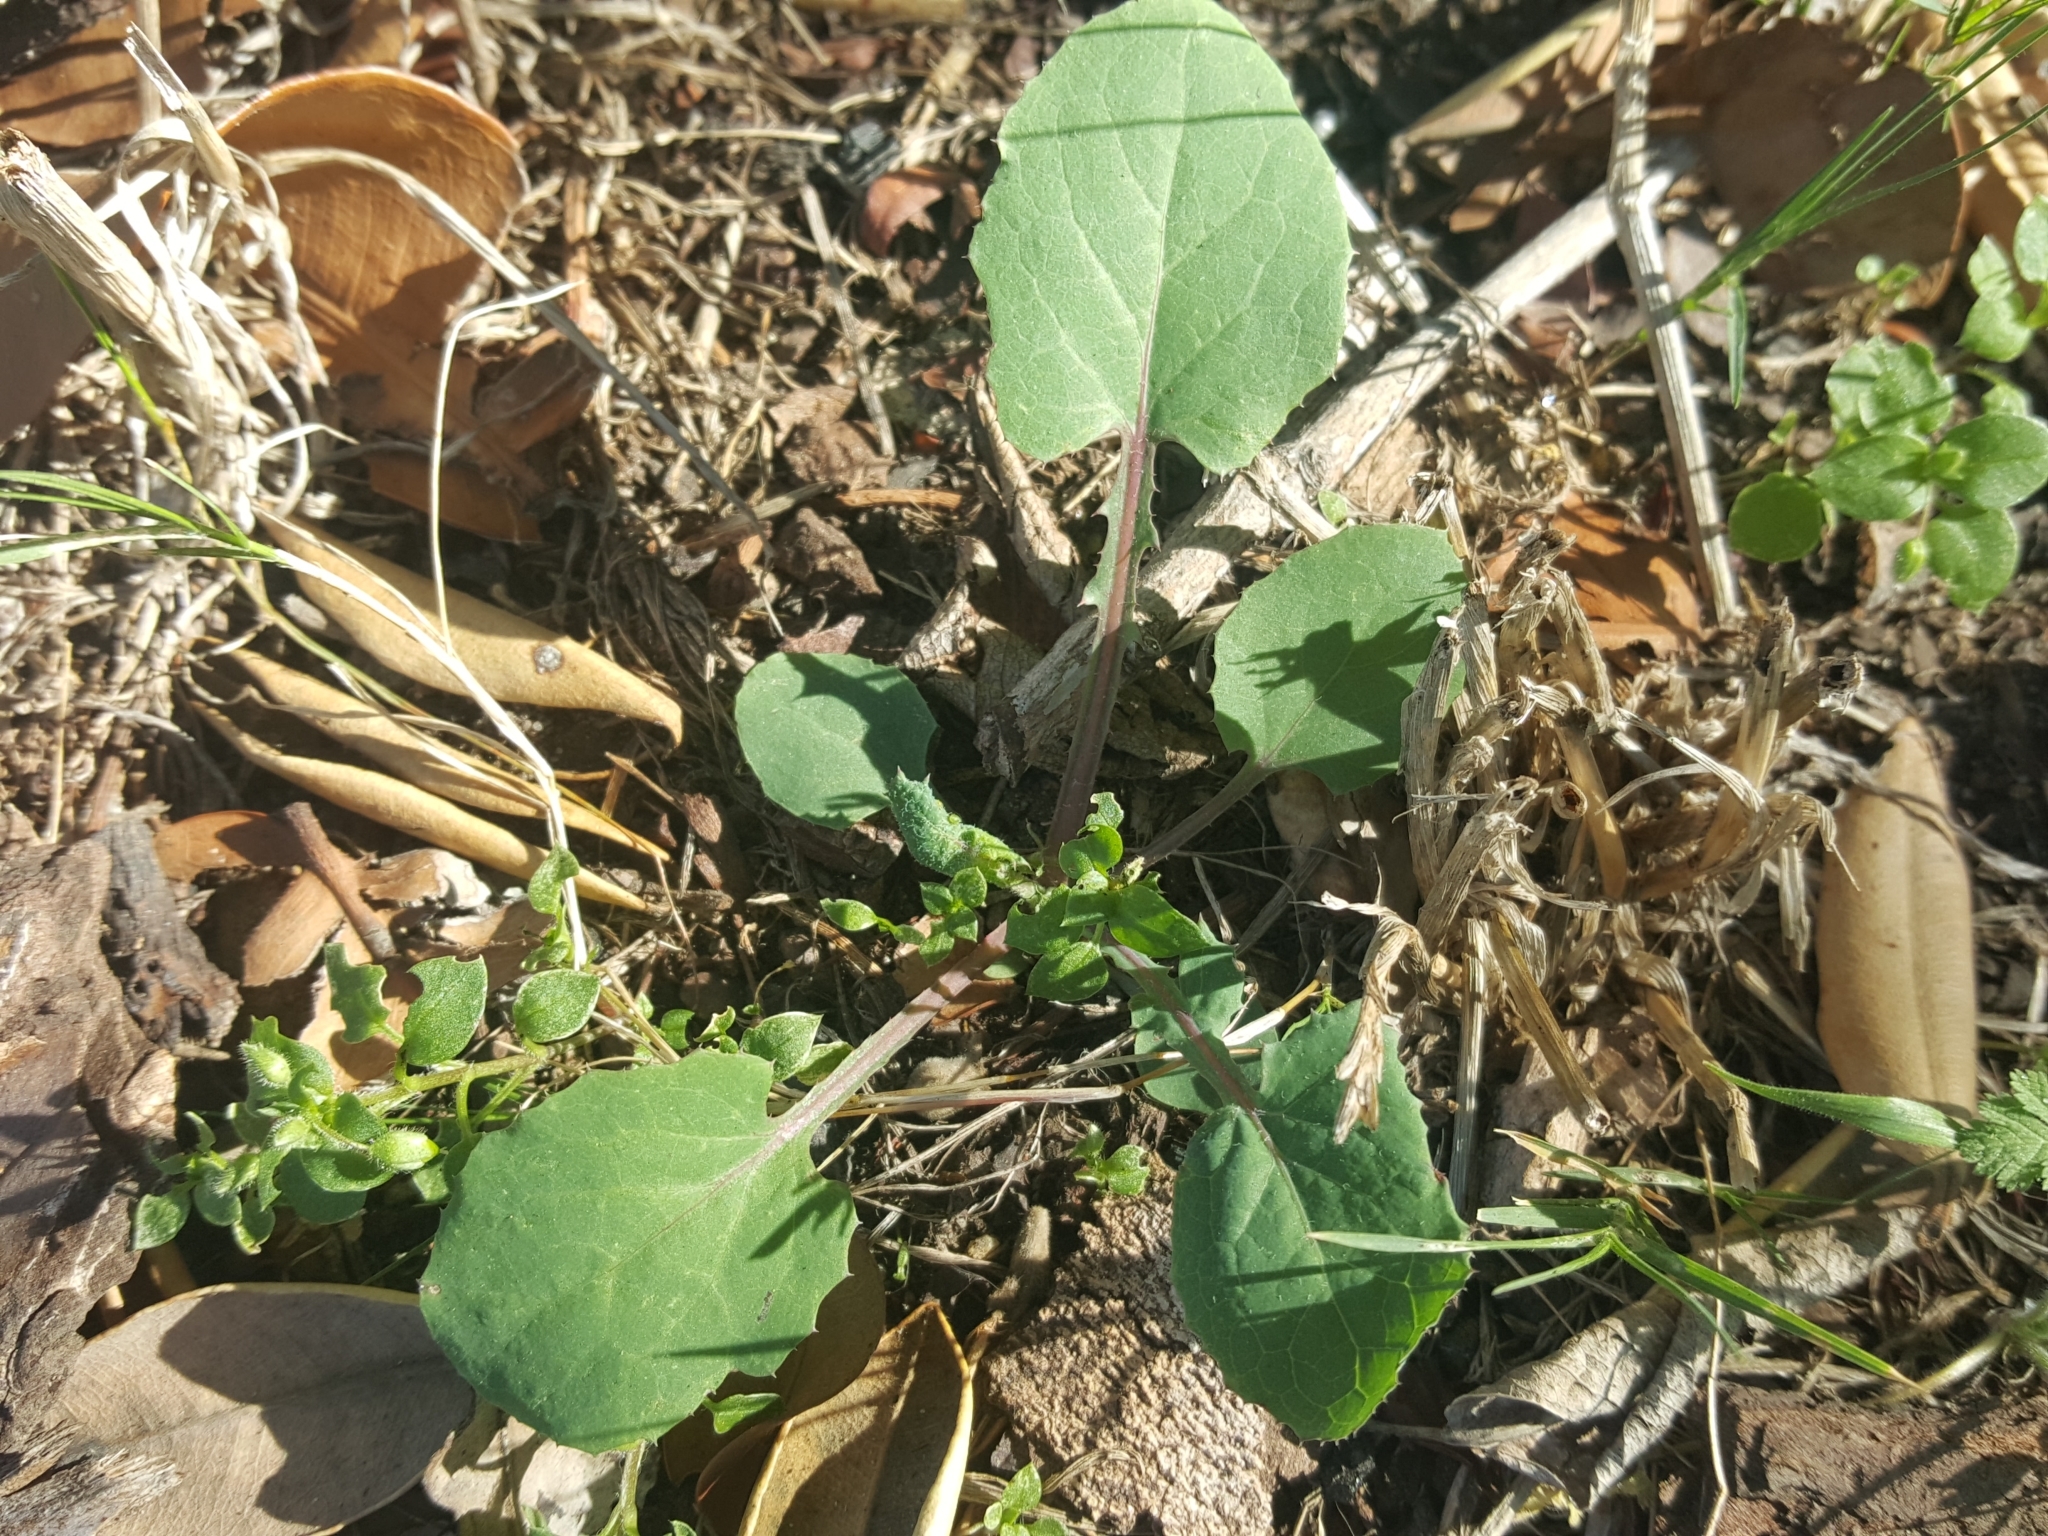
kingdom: Plantae
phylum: Tracheophyta
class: Magnoliopsida
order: Asterales
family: Asteraceae
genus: Sonchus
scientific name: Sonchus oleraceus
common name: Common sowthistle
